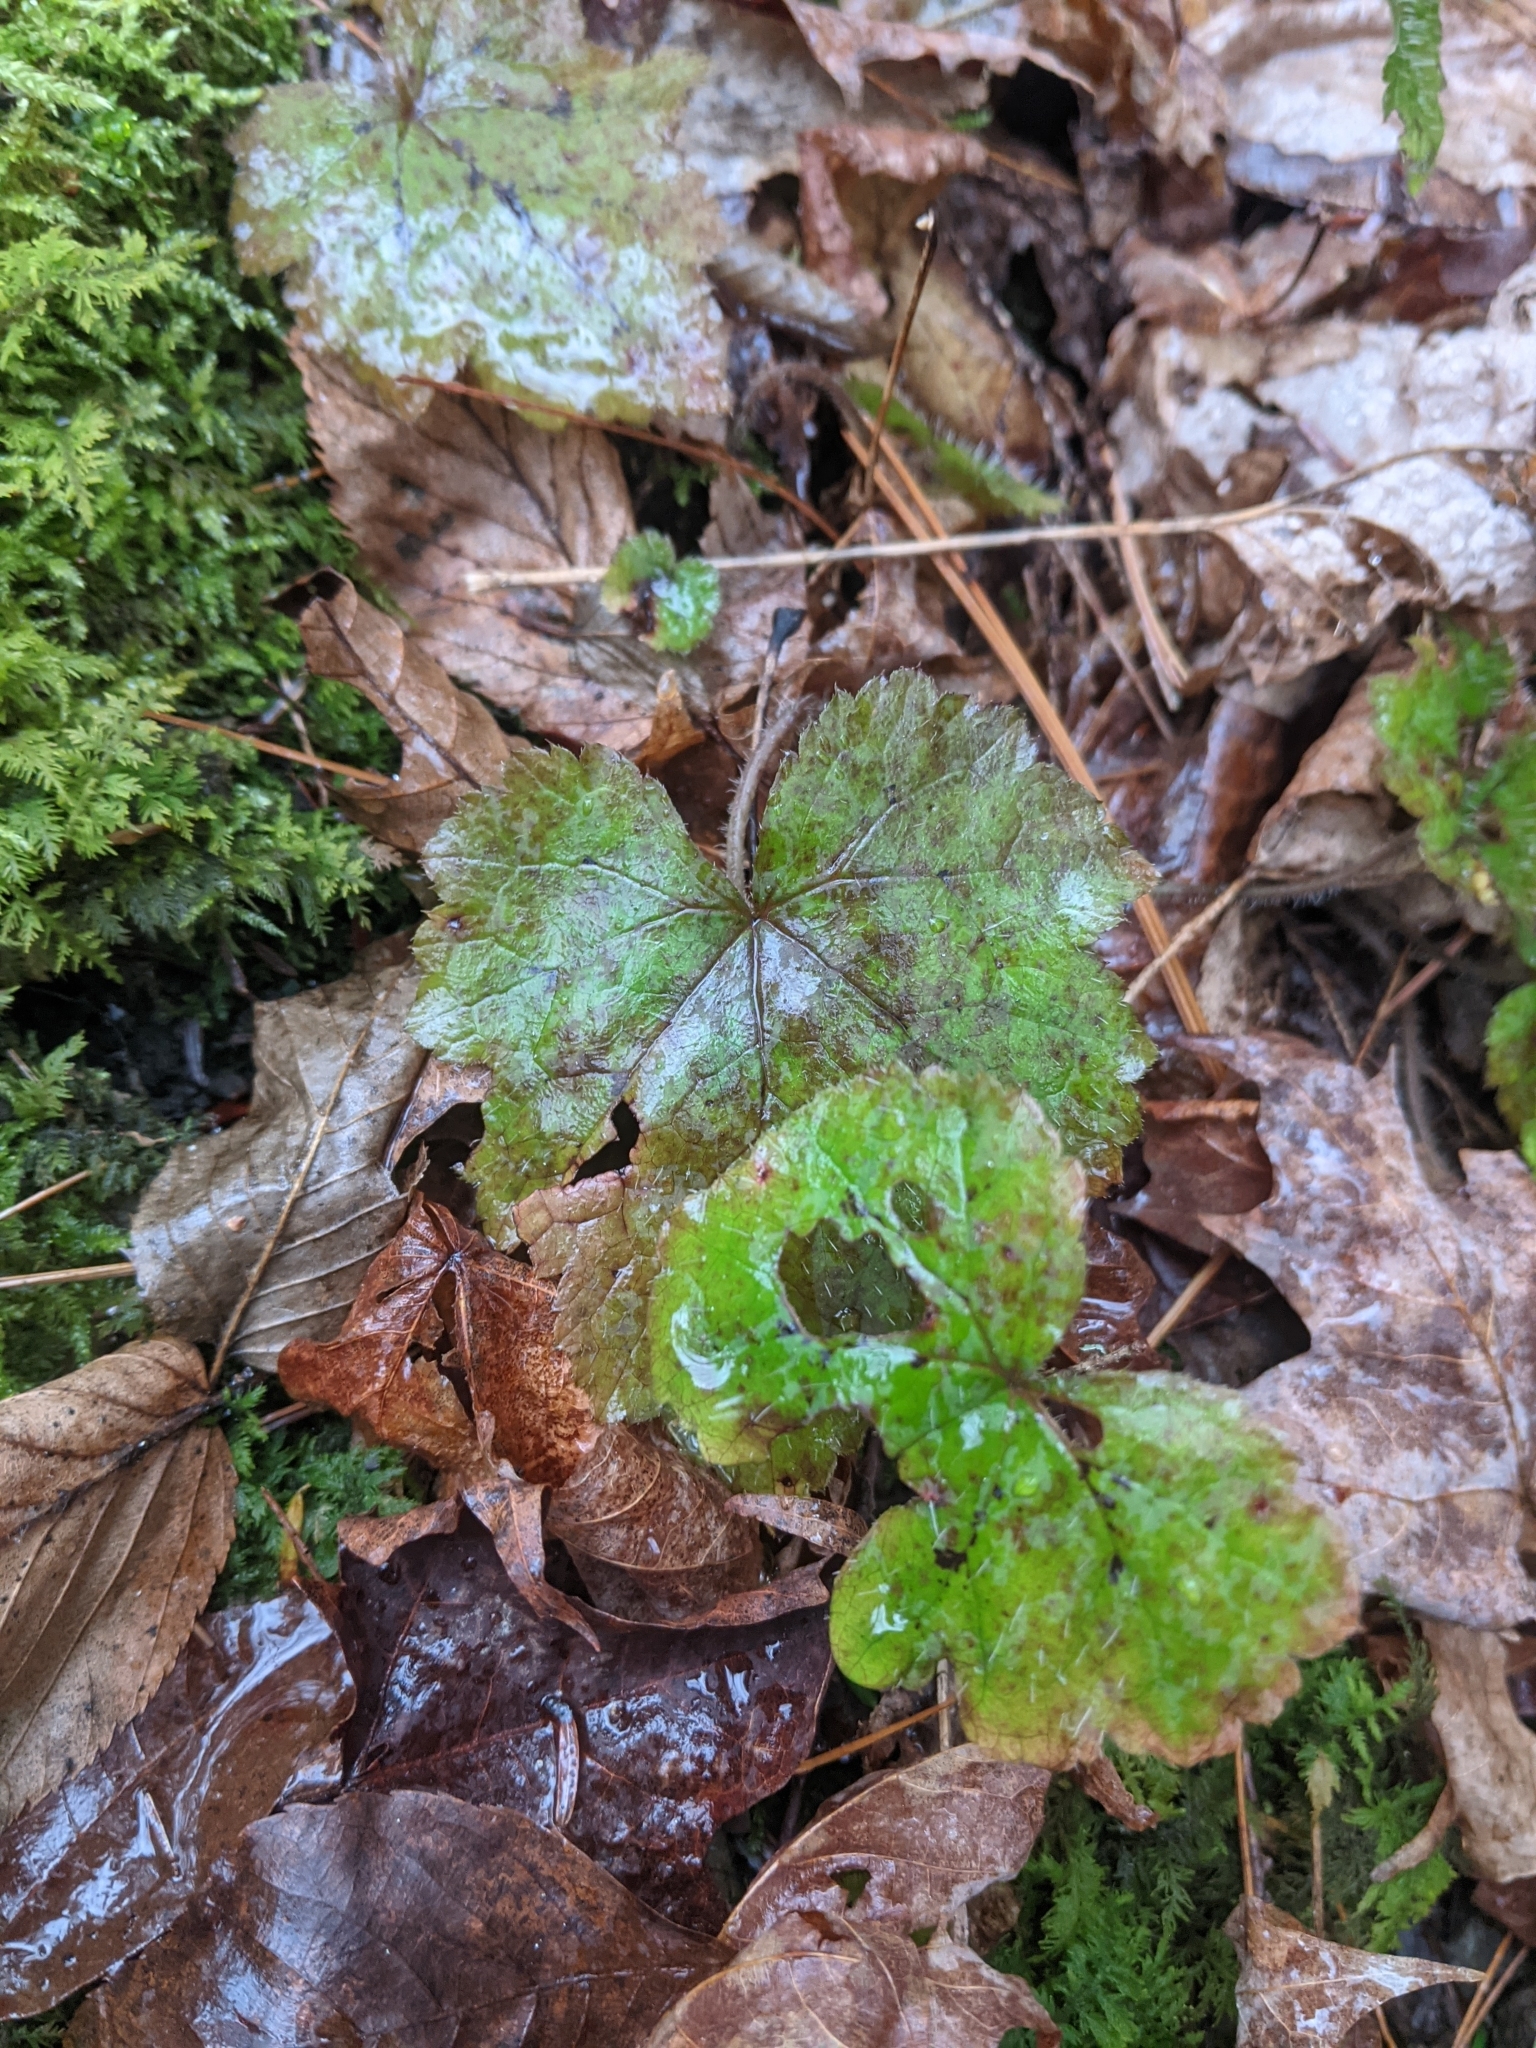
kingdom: Plantae
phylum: Tracheophyta
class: Magnoliopsida
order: Saxifragales
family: Saxifragaceae
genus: Tiarella
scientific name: Tiarella stolonifera
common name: Stoloniferous foamflower
